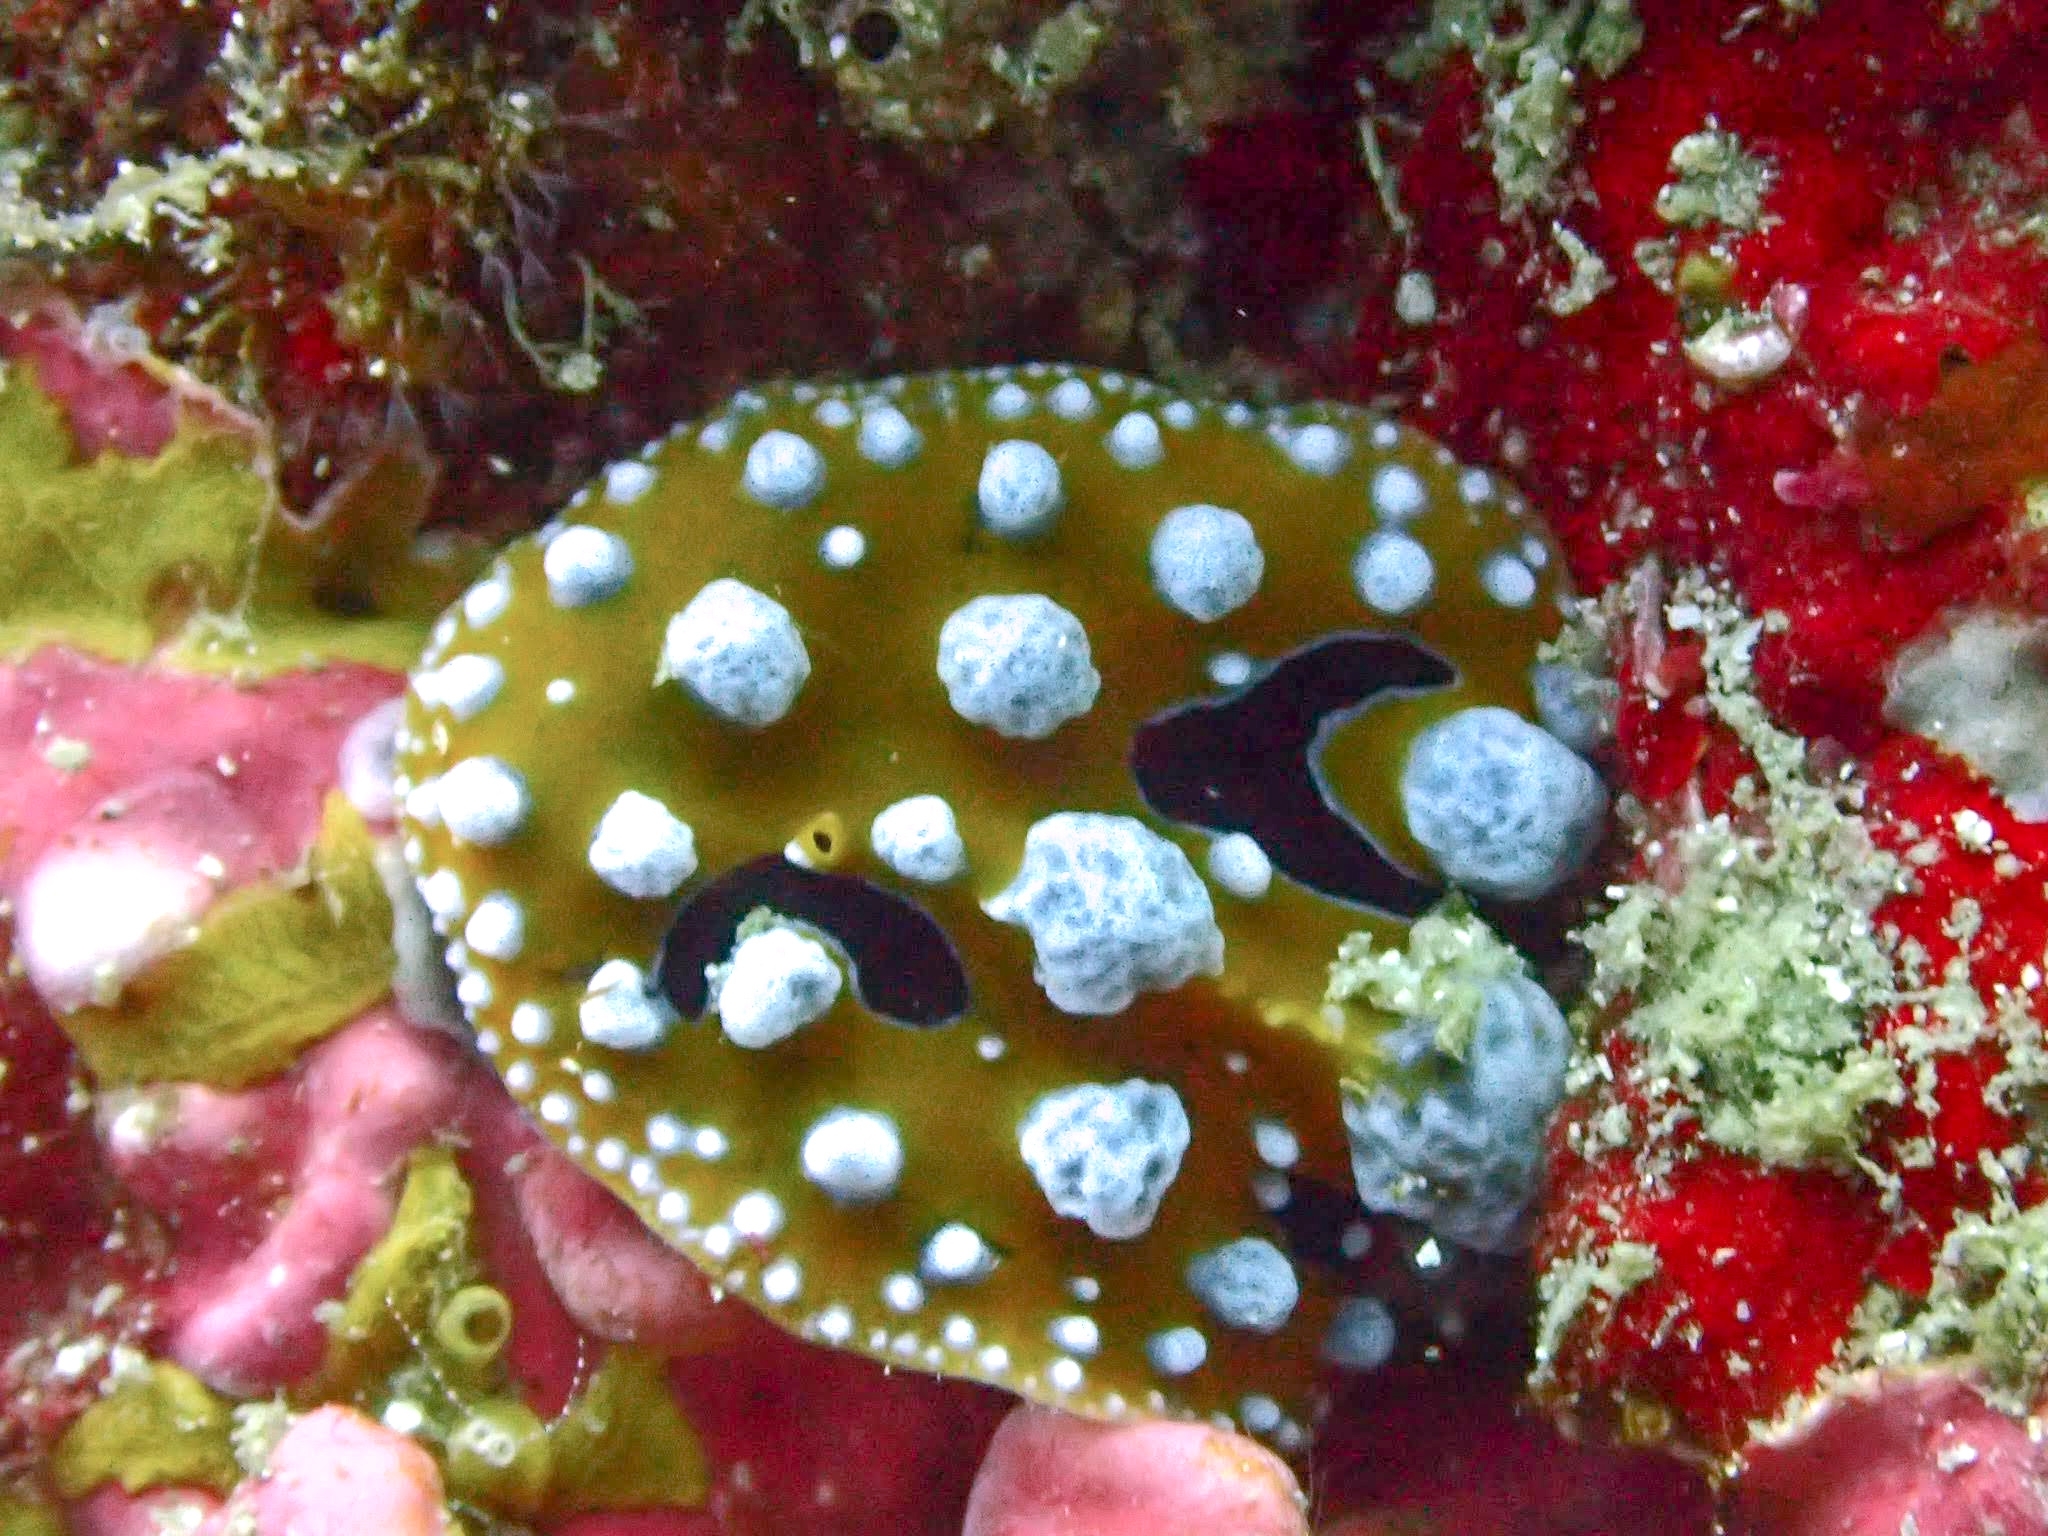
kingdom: Animalia
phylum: Mollusca
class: Gastropoda
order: Nudibranchia
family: Phyllidiidae
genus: Phyllidia
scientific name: Phyllidia ocellata
